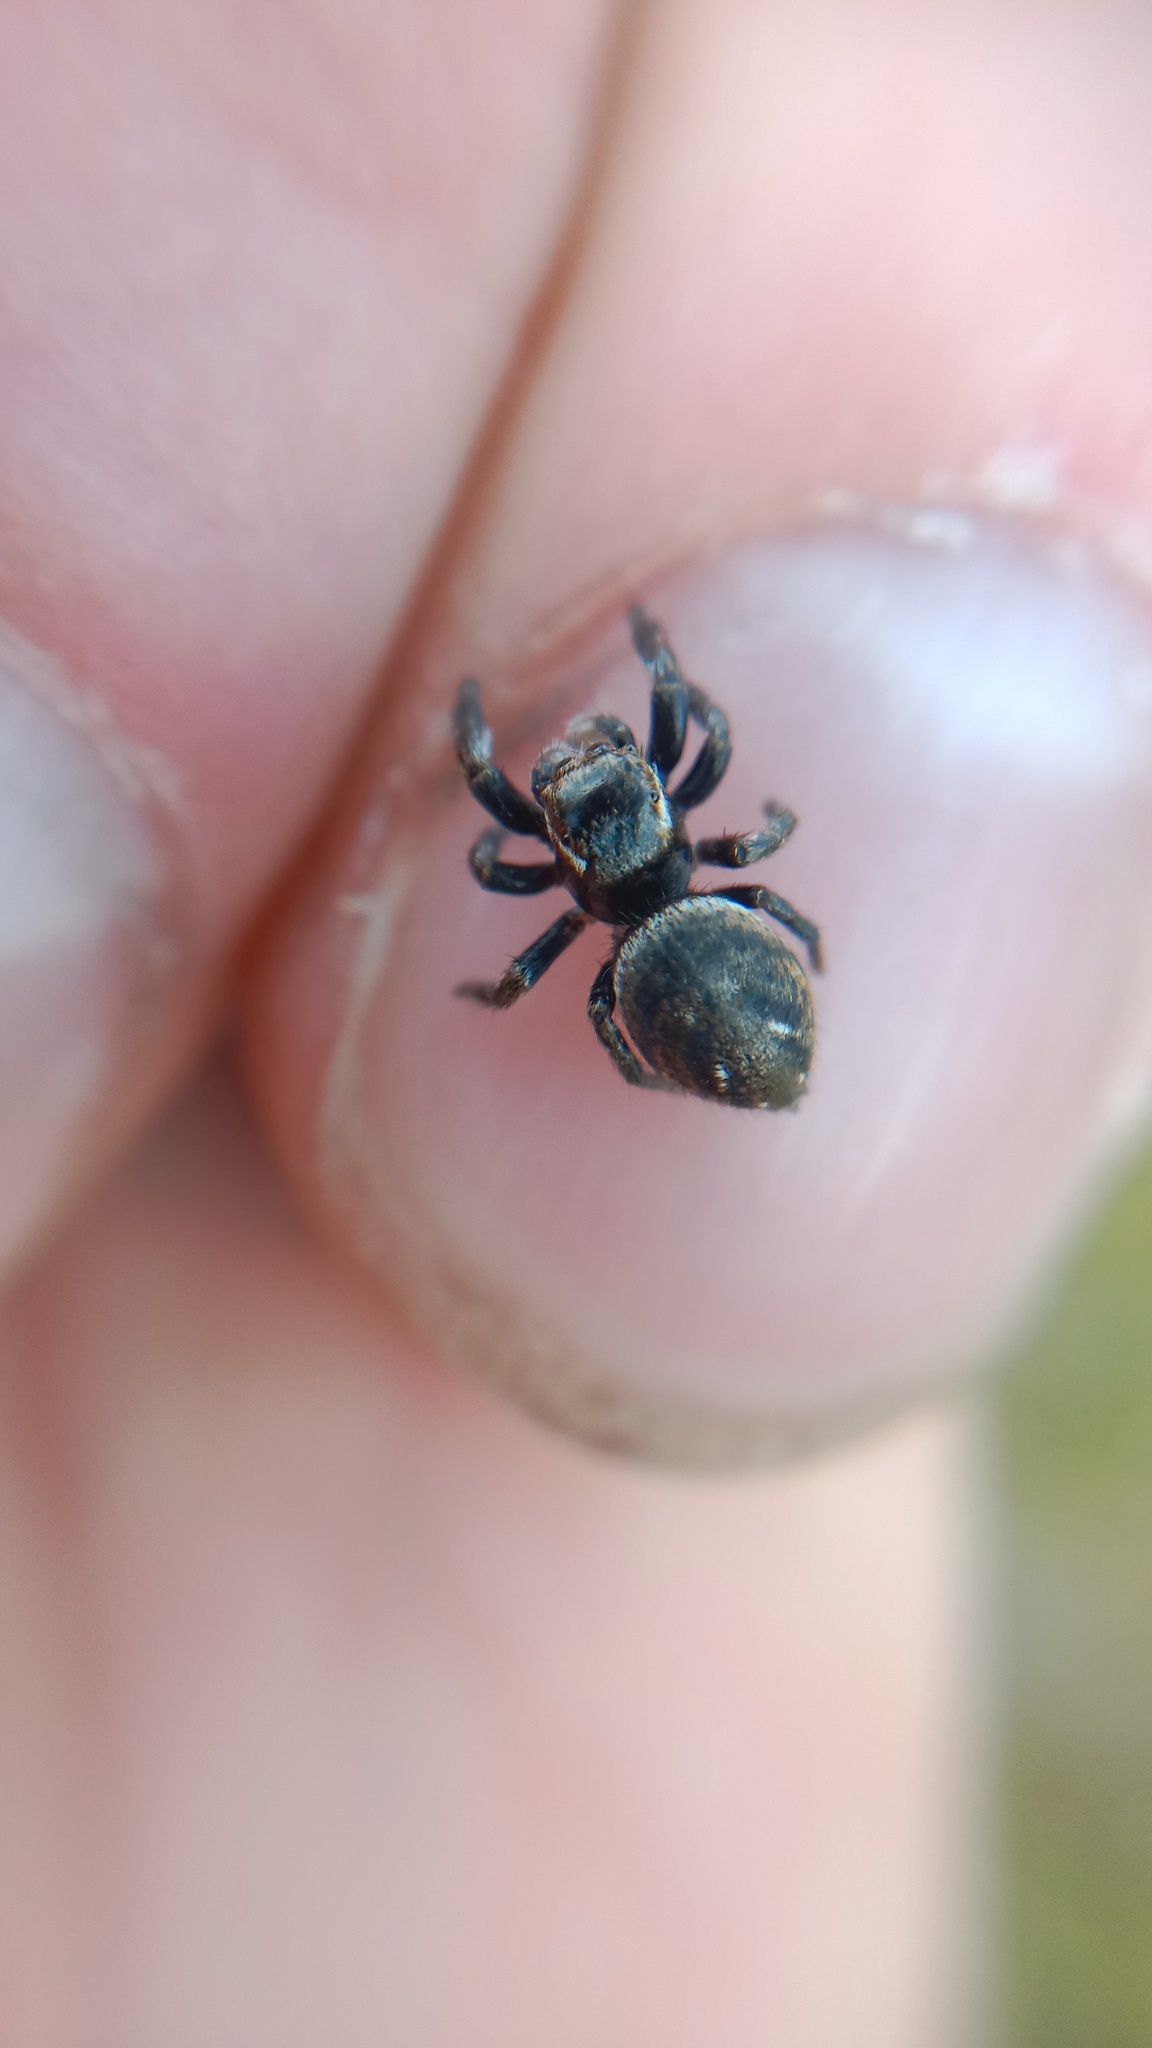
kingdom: Animalia
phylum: Arthropoda
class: Arachnida
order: Araneae
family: Salticidae
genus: Evarcha
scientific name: Evarcha arcuata
